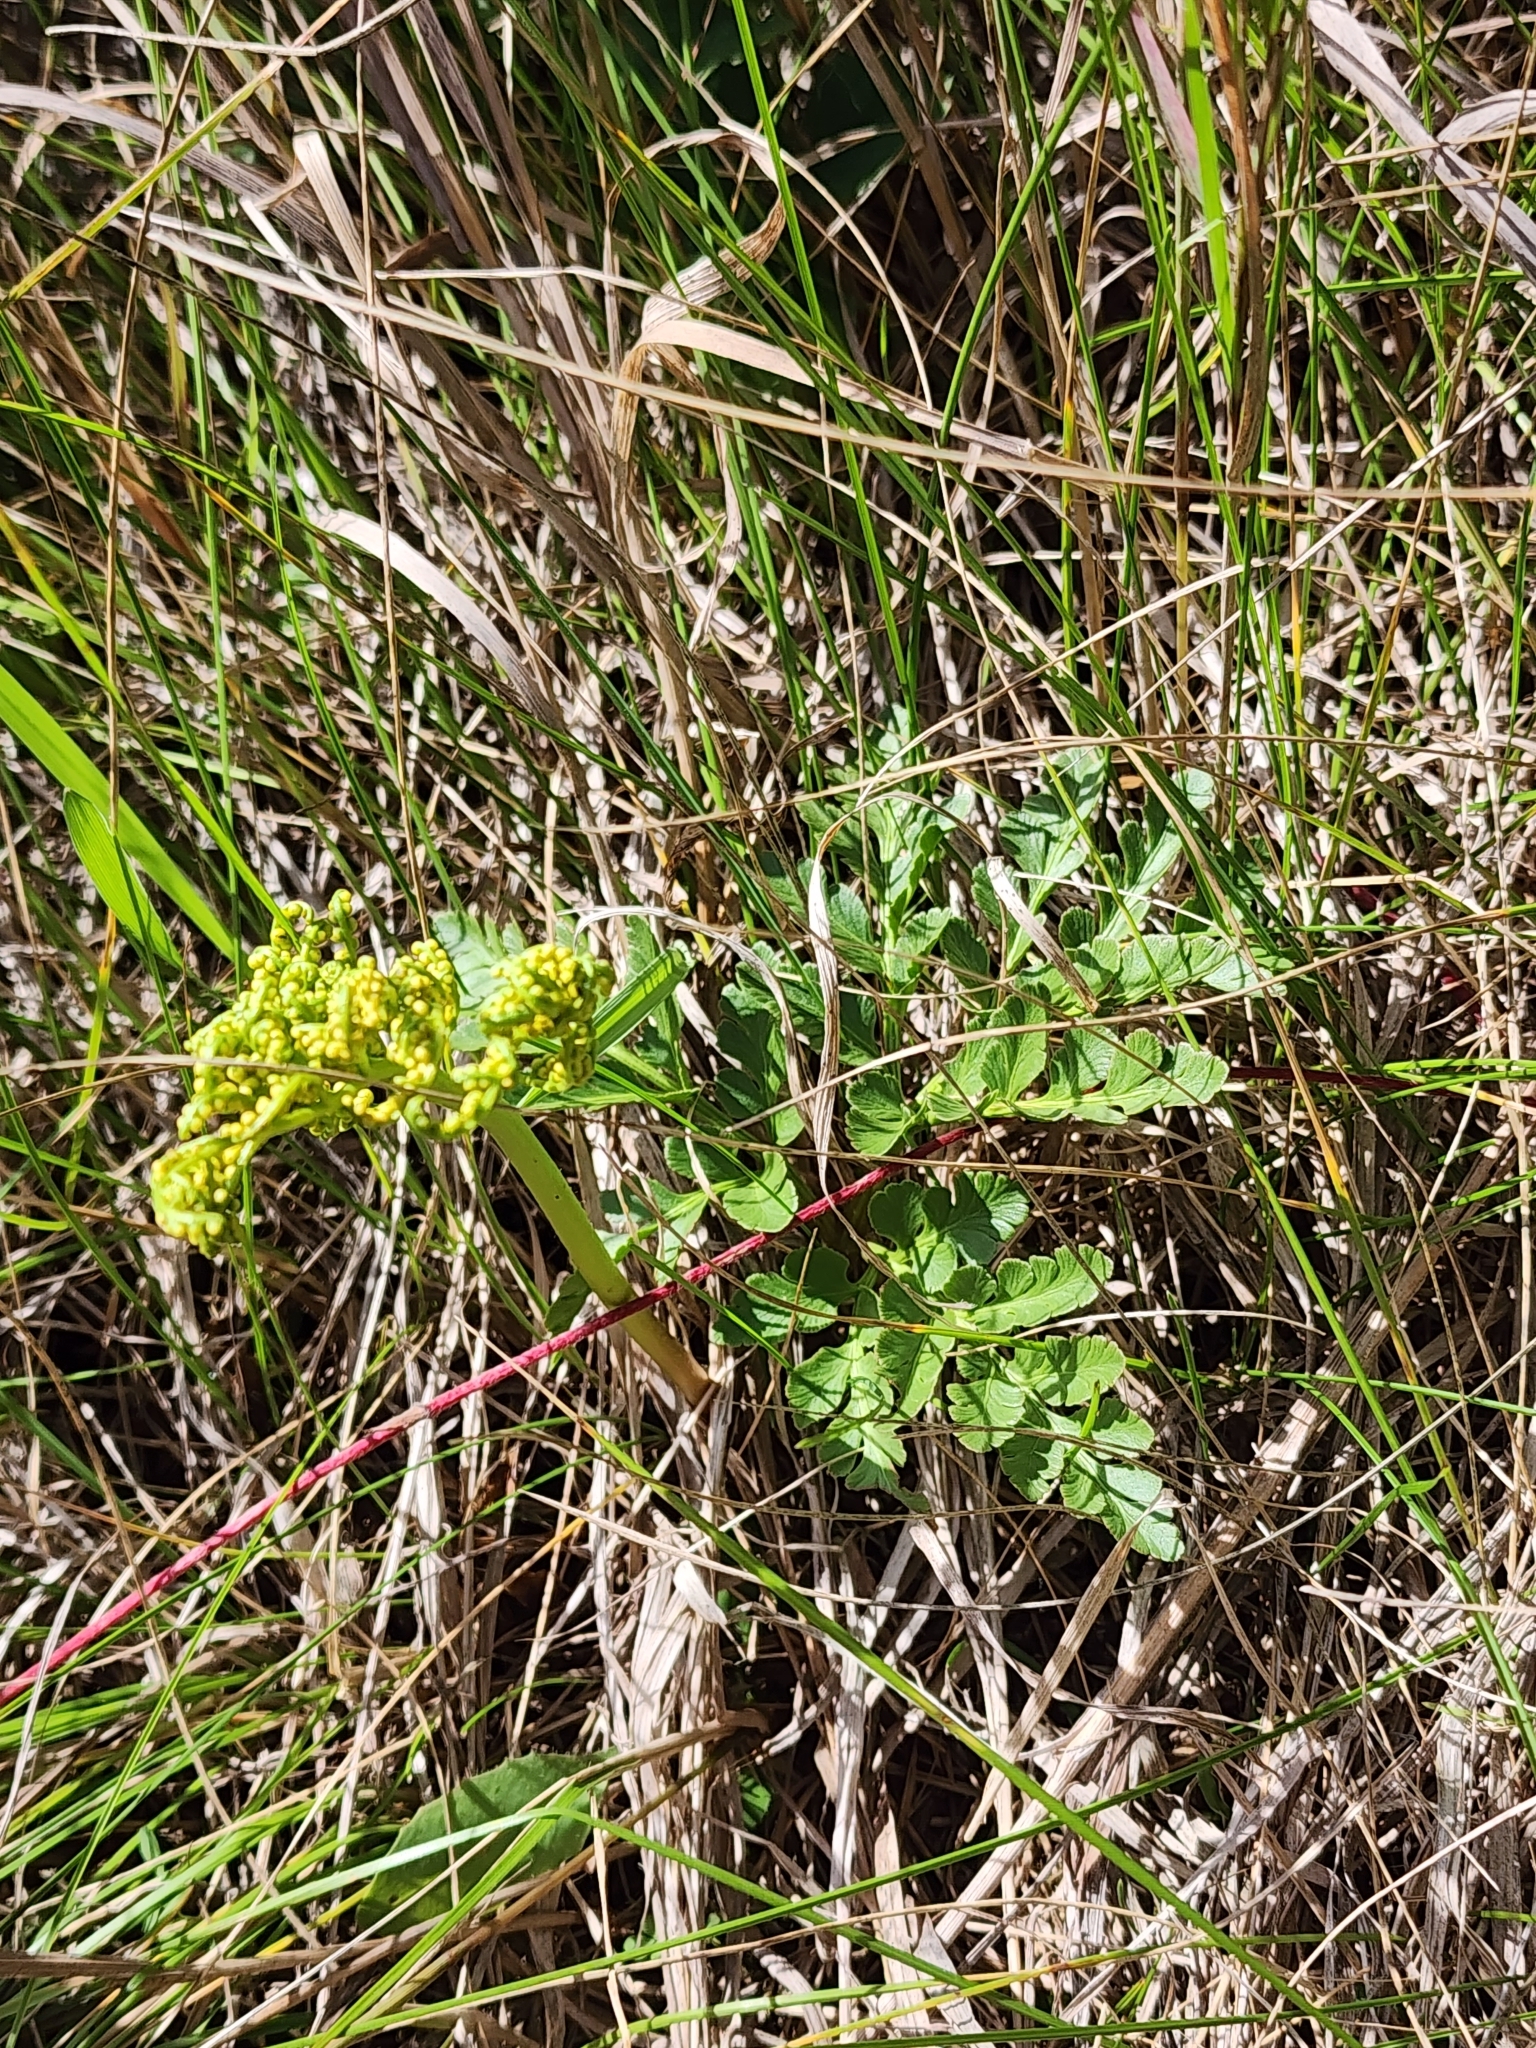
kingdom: Plantae
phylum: Tracheophyta
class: Polypodiopsida
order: Ophioglossales
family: Ophioglossaceae
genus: Sceptridium
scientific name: Sceptridium multifidum
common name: Leathery grape fern
